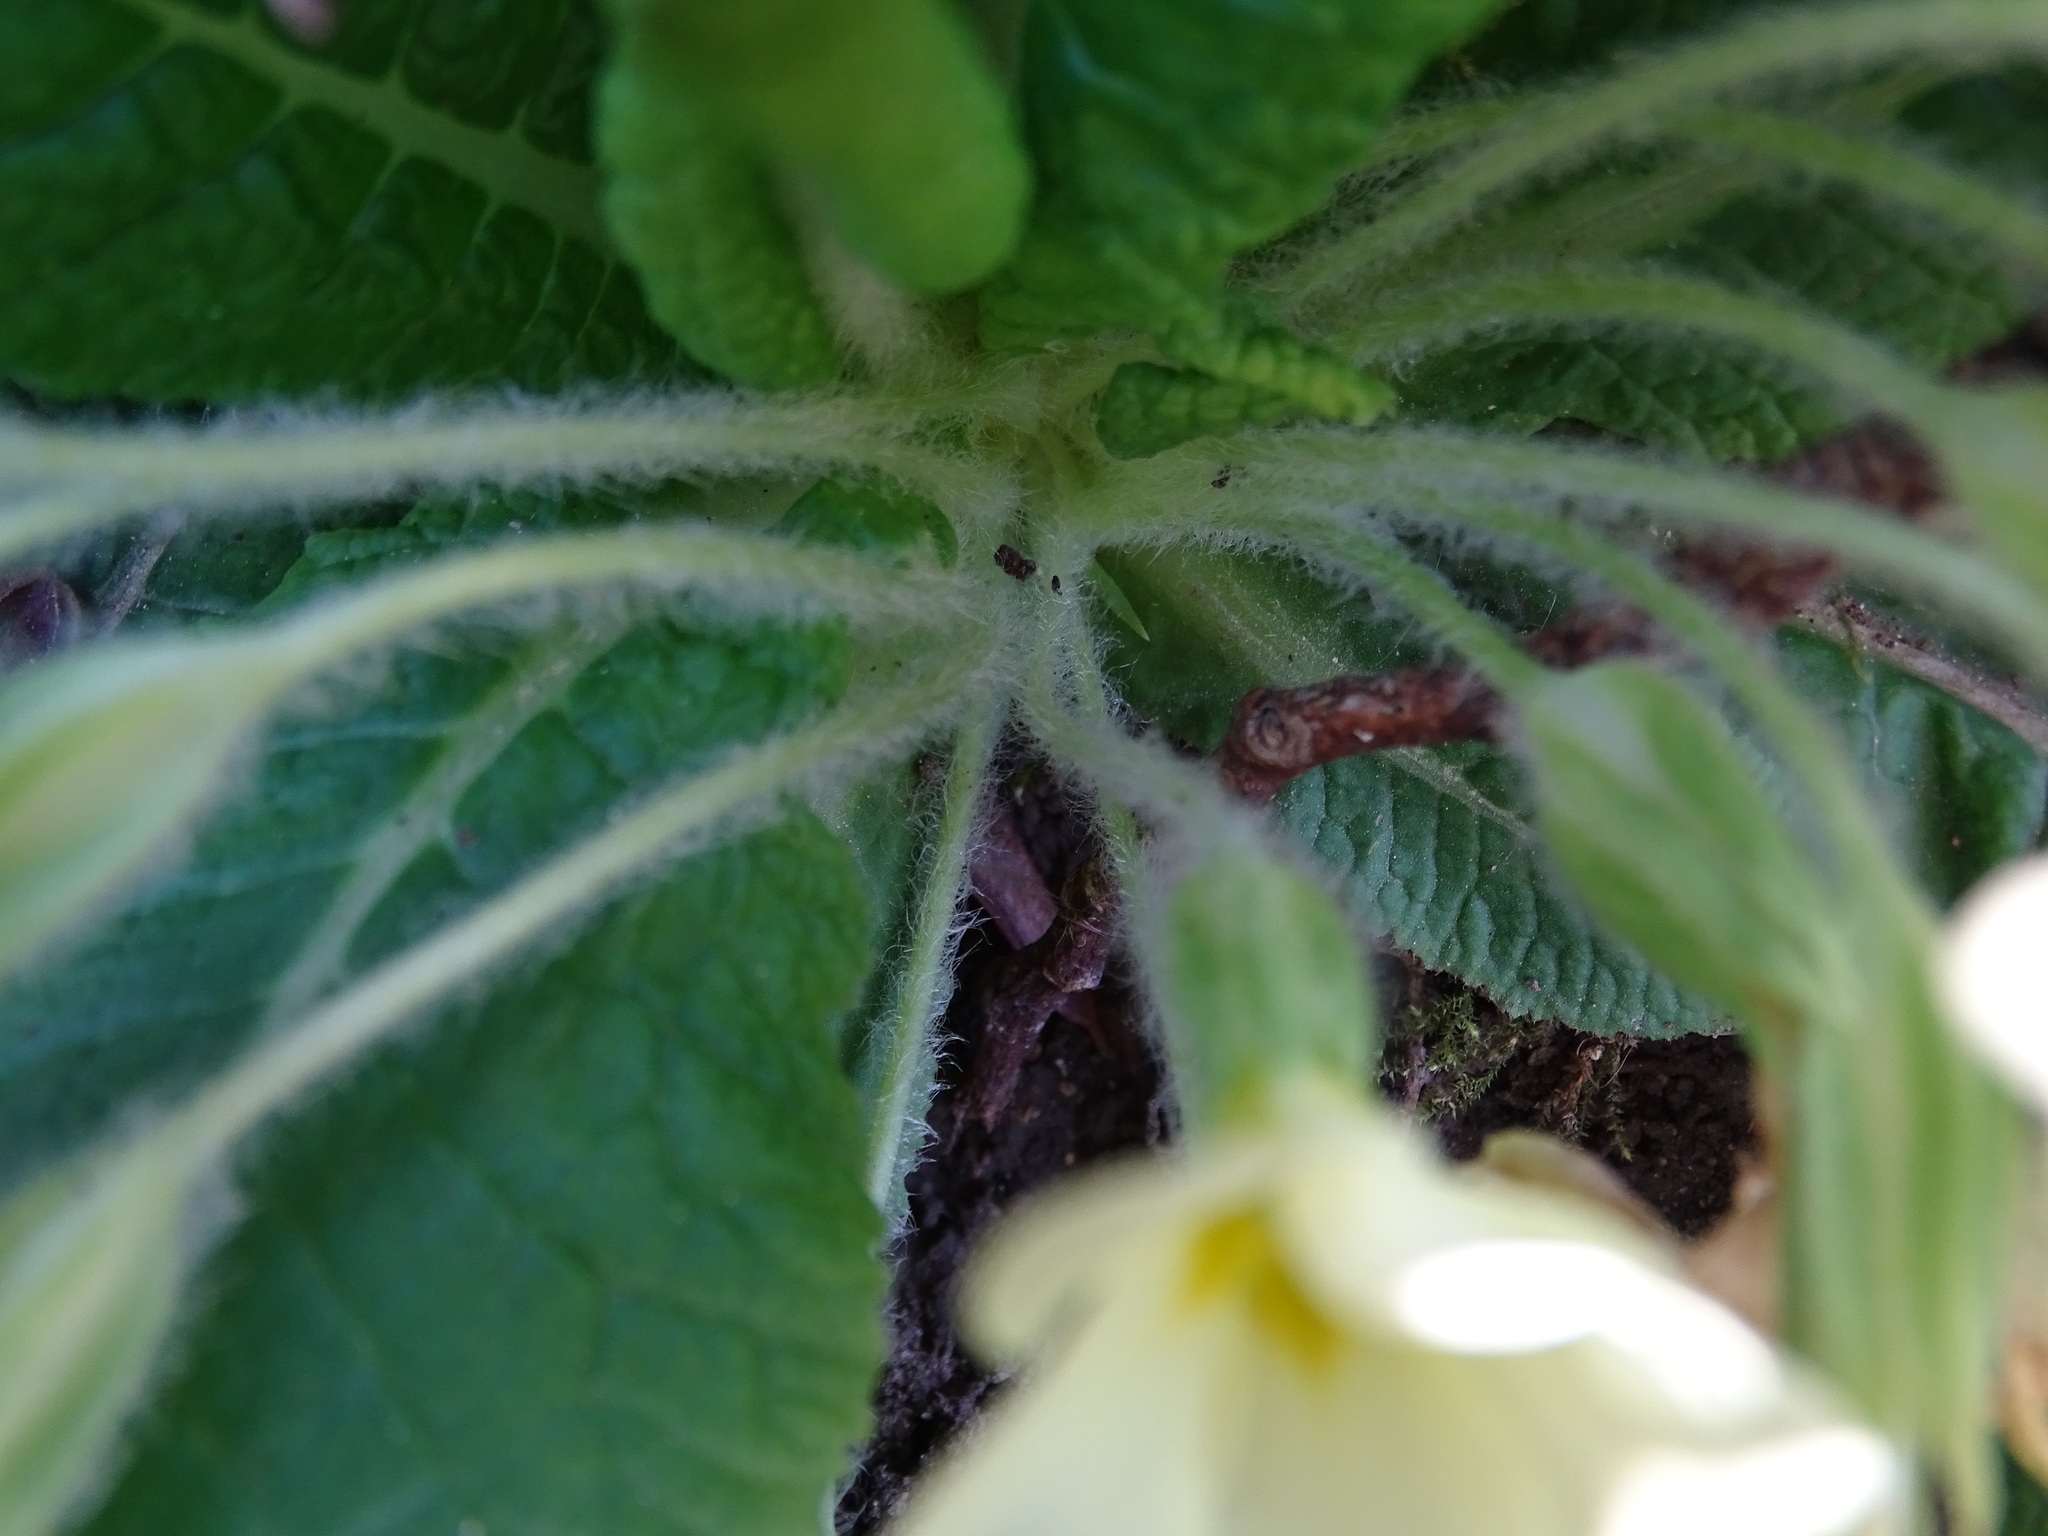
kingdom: Plantae
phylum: Tracheophyta
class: Magnoliopsida
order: Ericales
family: Primulaceae
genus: Primula
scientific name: Primula vulgaris
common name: Primrose
